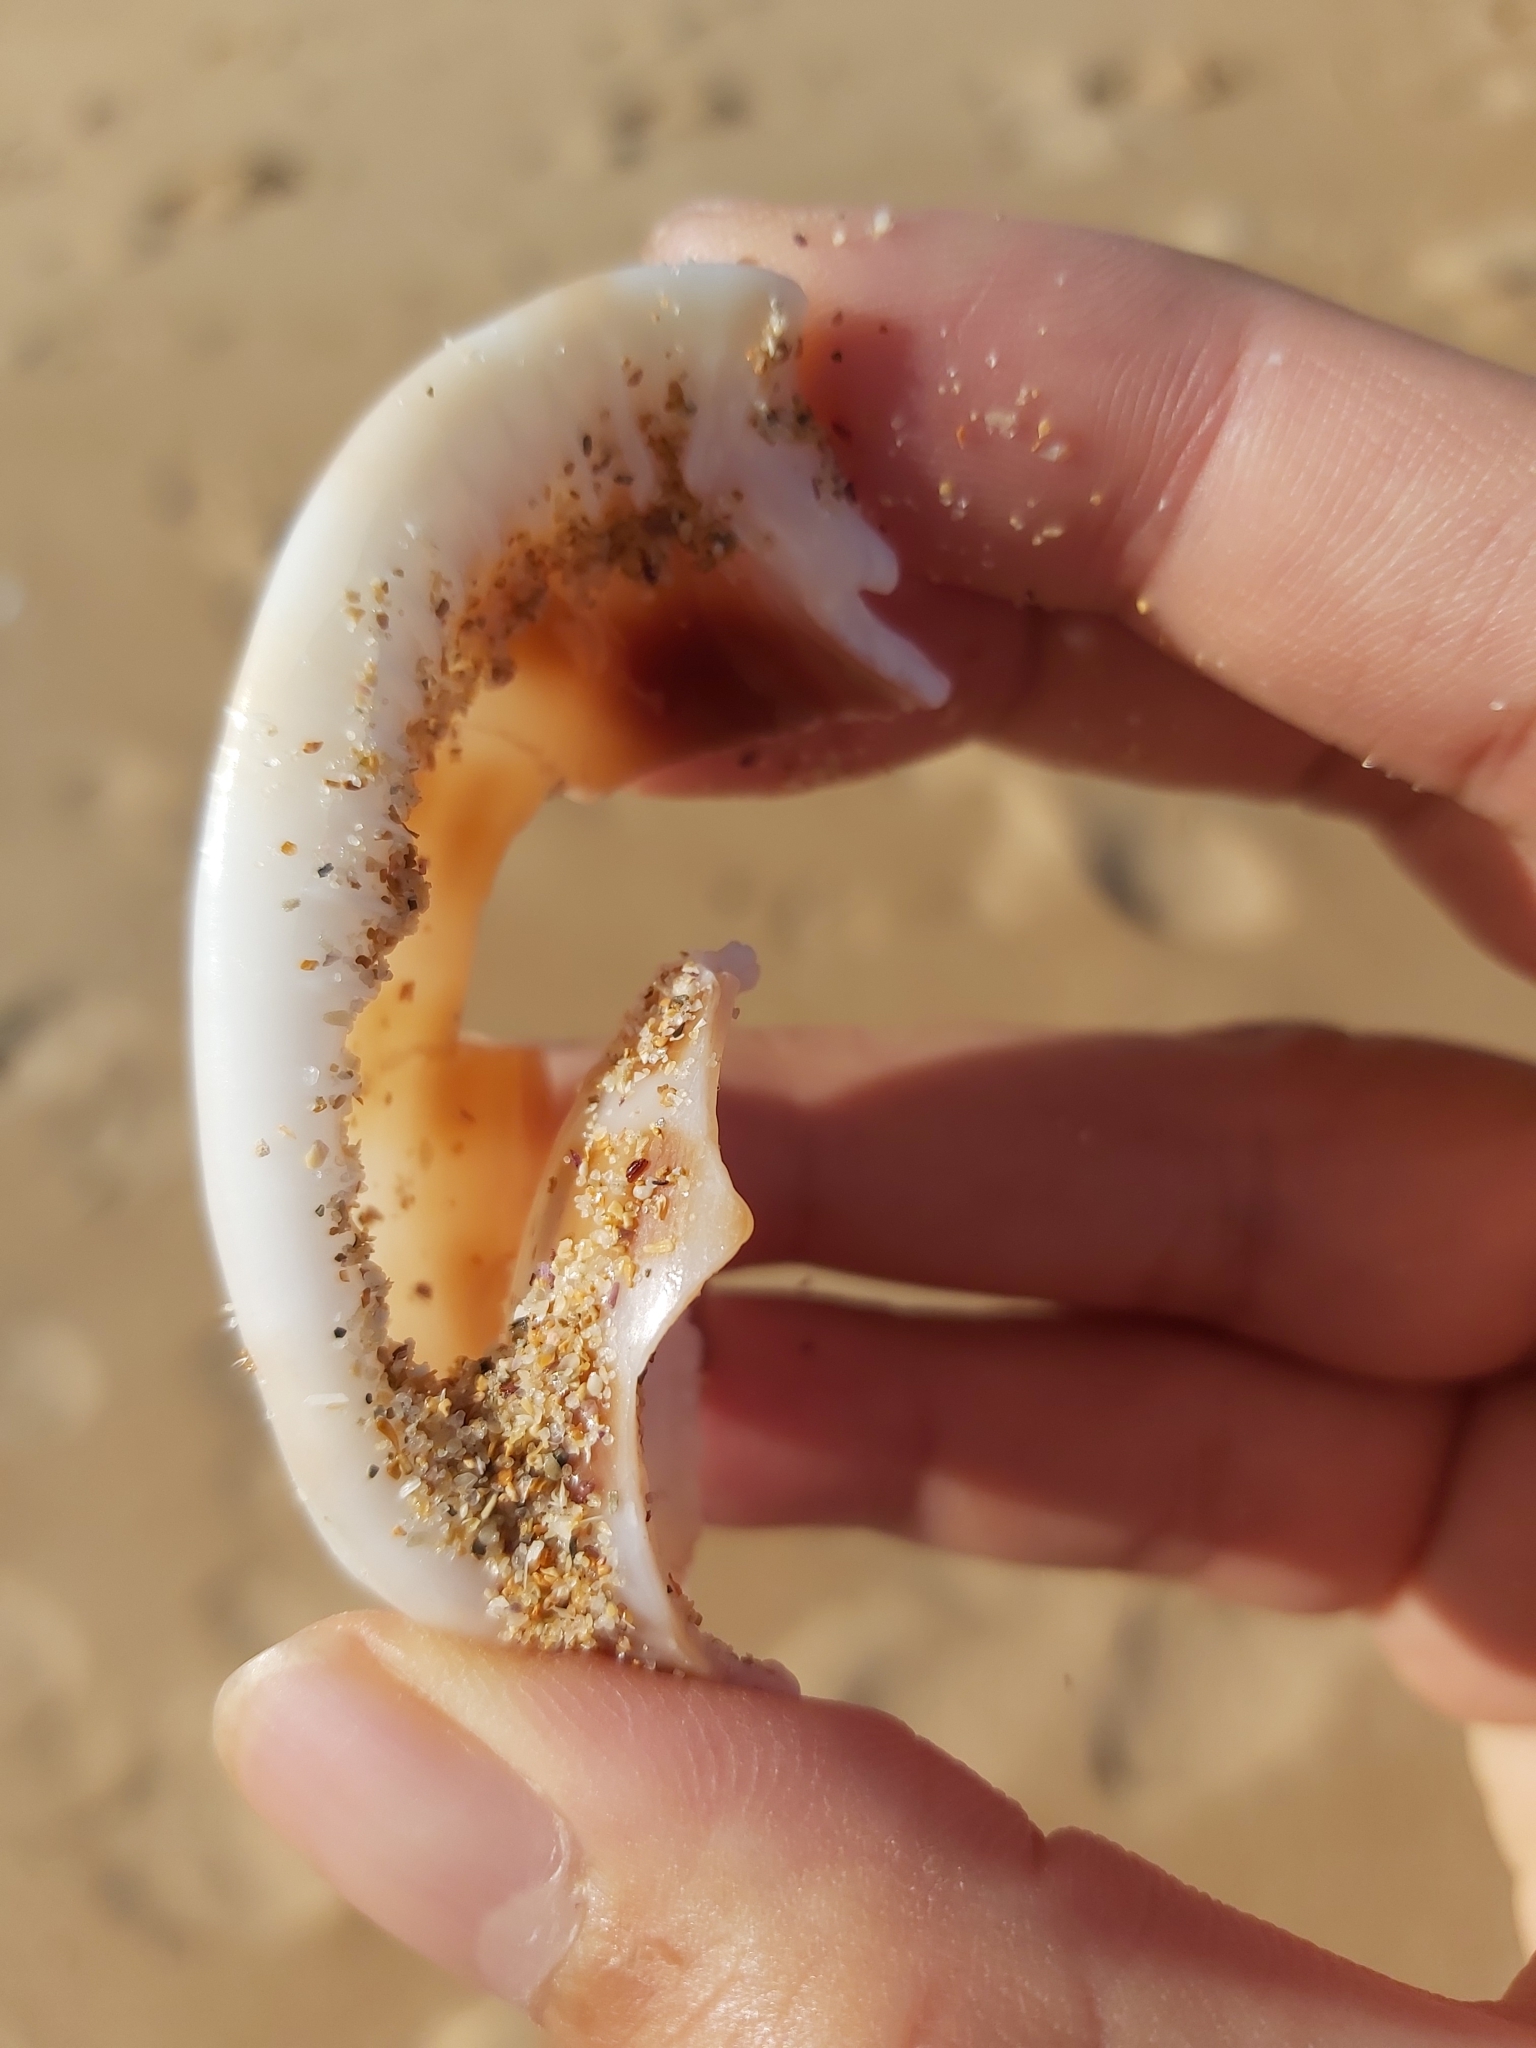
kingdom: Animalia
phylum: Mollusca
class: Gastropoda
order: Littorinimorpha
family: Cassidae
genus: Phalium
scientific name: Phalium areola
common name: Checkered bonnet
